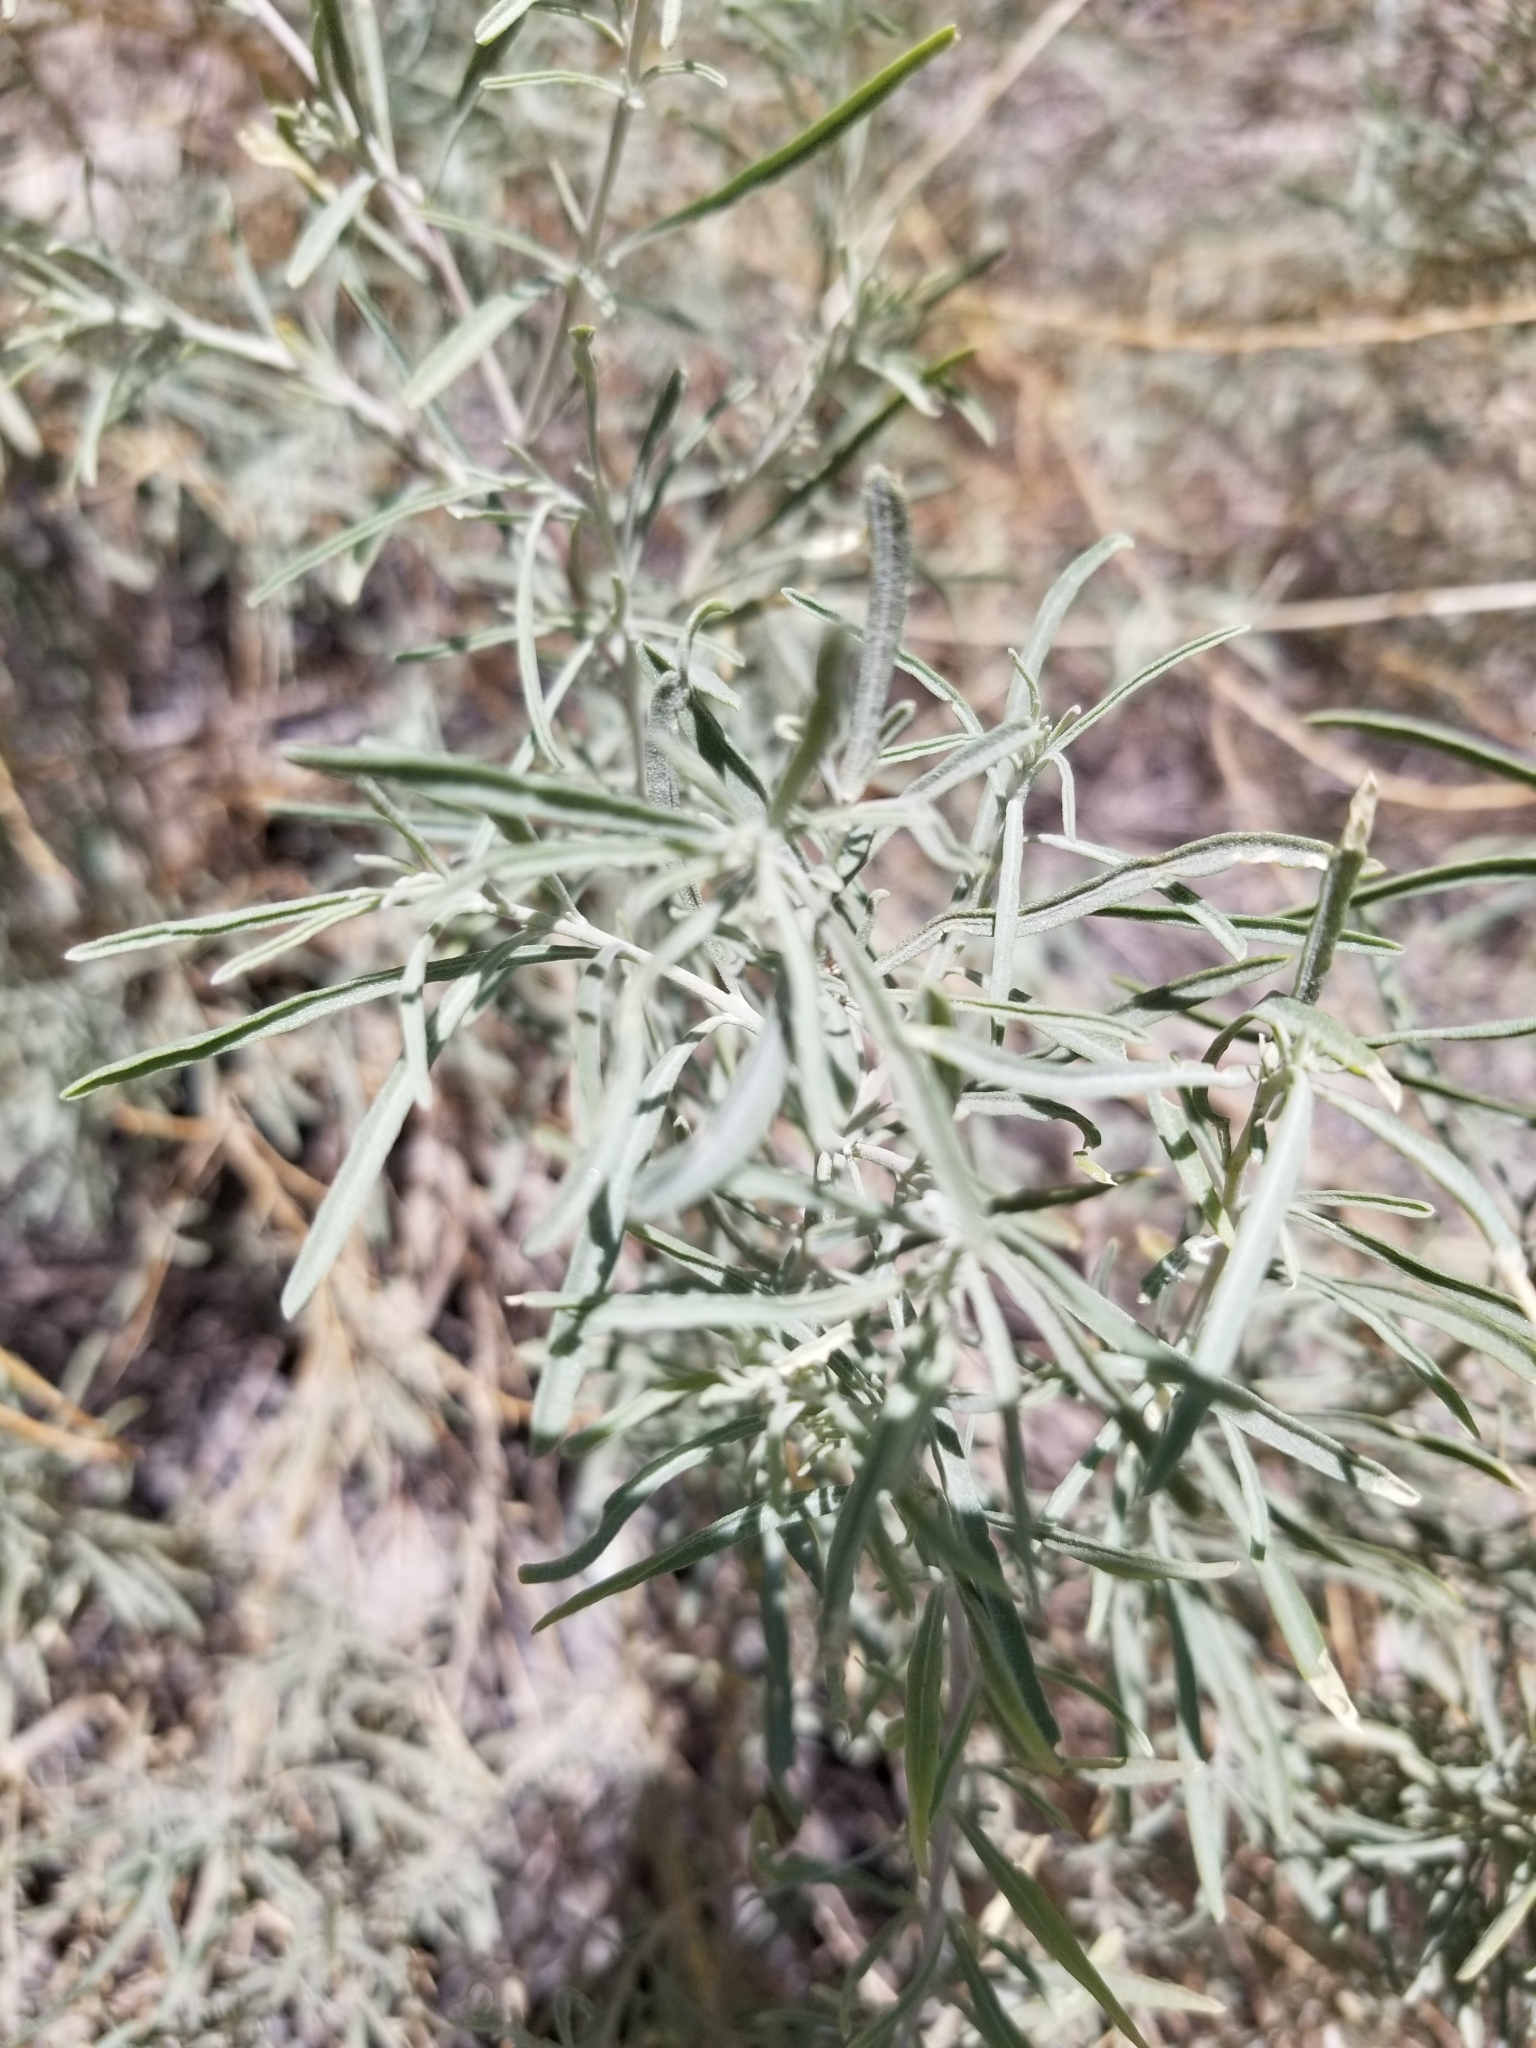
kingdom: Plantae
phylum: Tracheophyta
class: Magnoliopsida
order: Caryophyllales
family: Amaranthaceae
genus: Atriplex
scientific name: Atriplex canescens
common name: Four-wing saltbush
